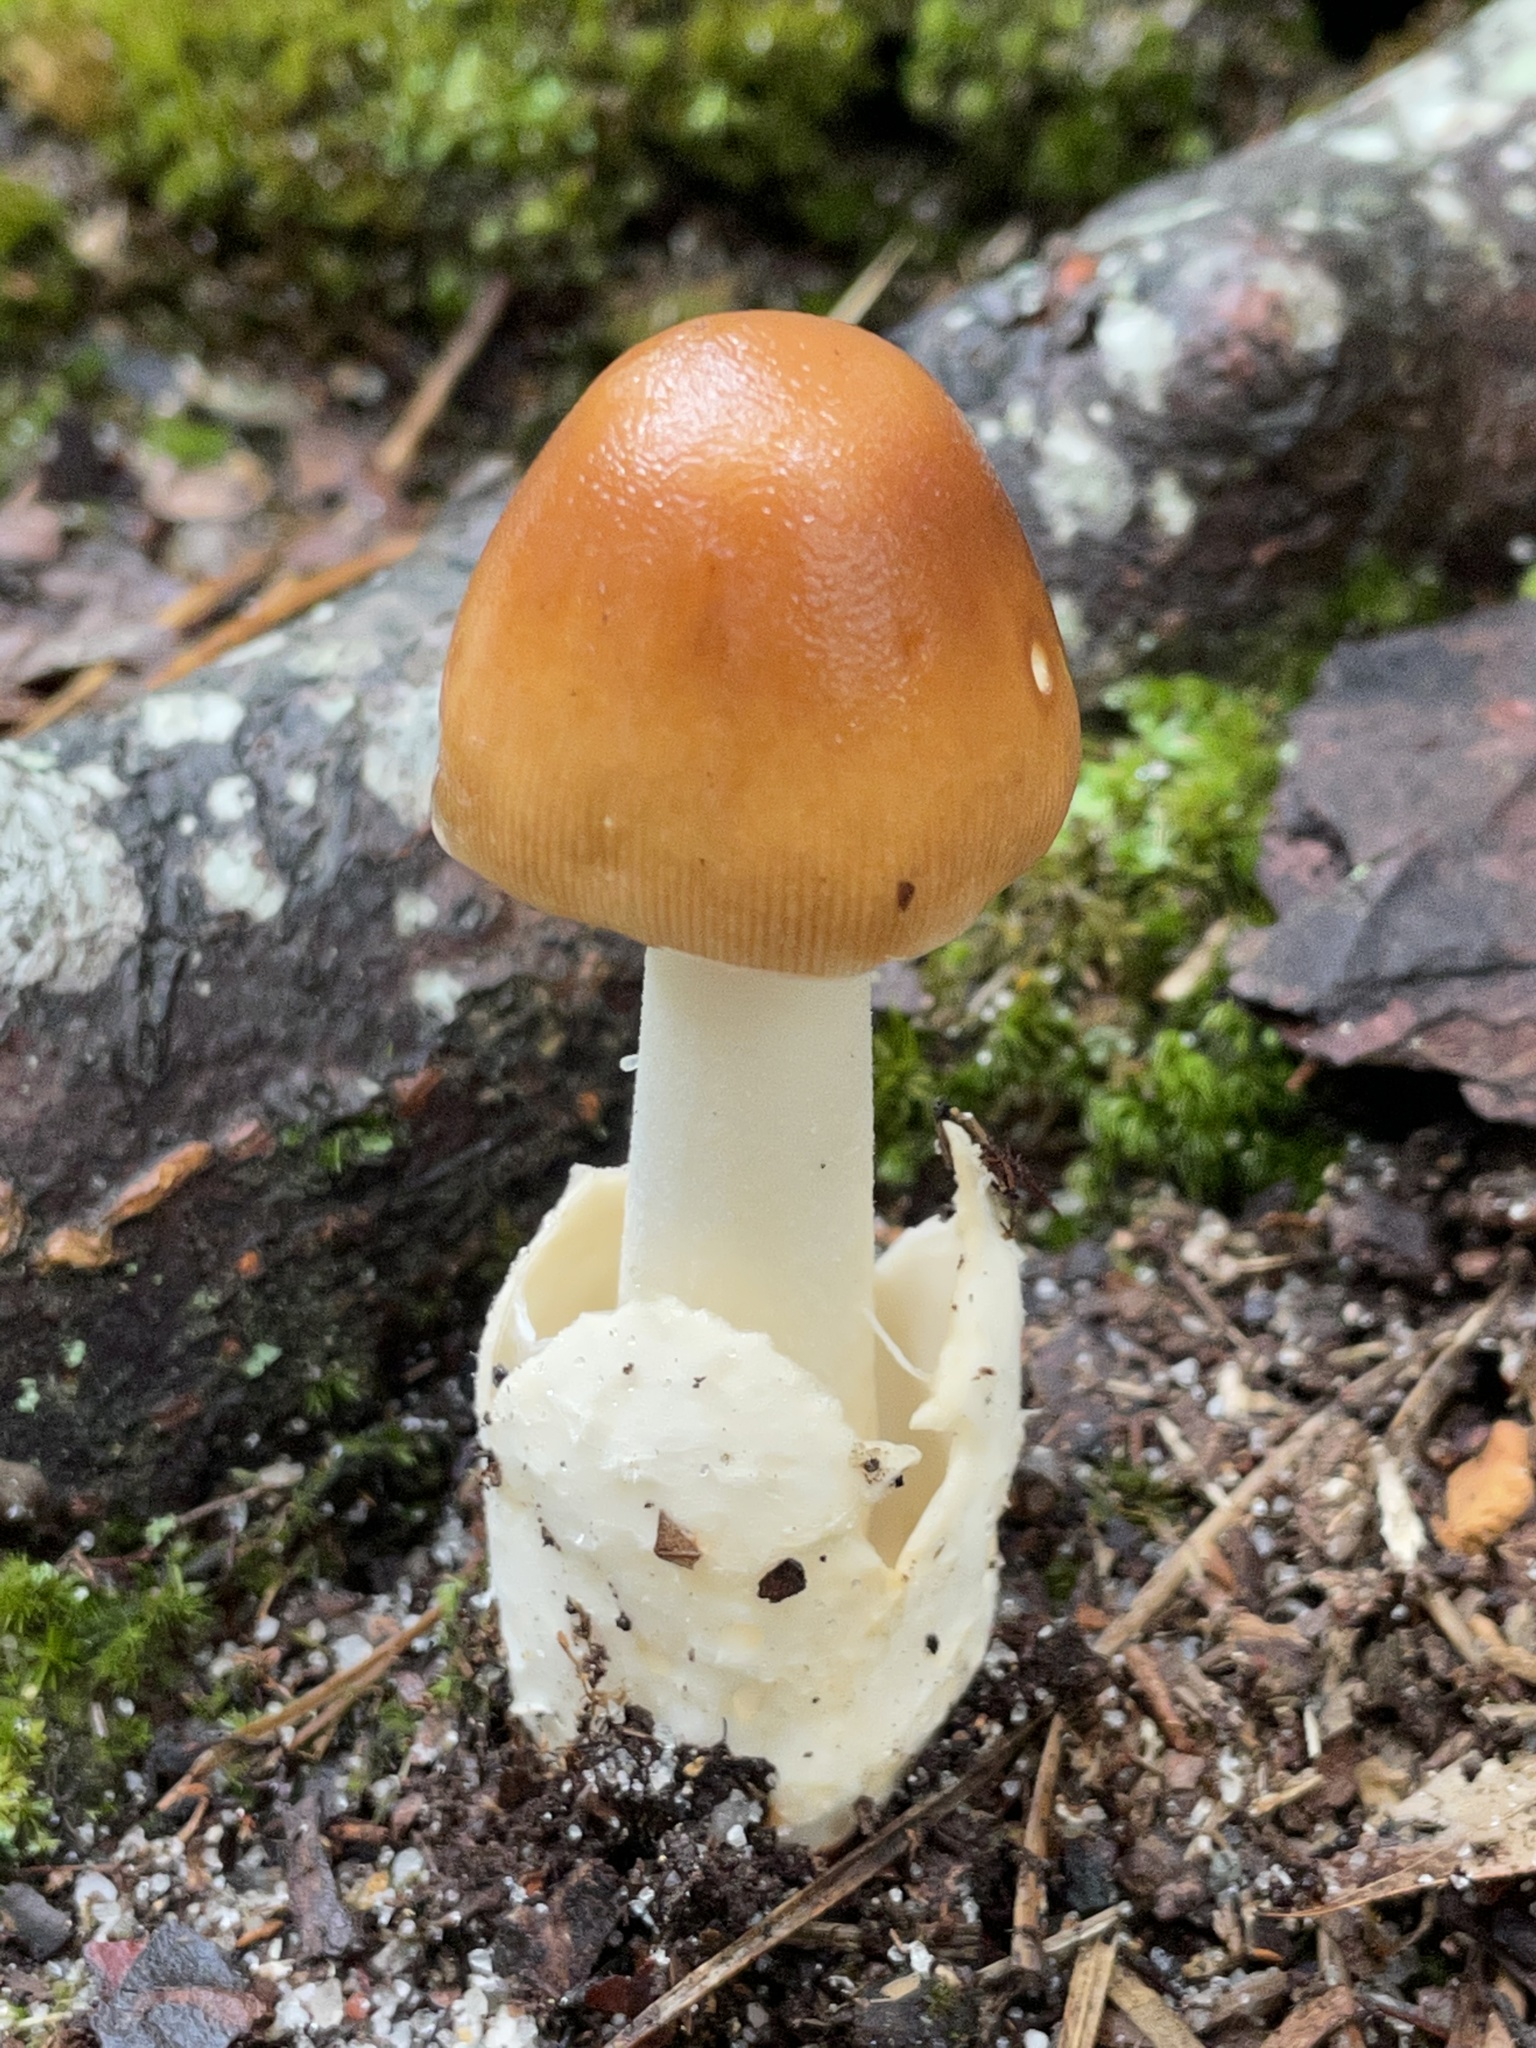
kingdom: Fungi
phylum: Basidiomycota
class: Agaricomycetes
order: Agaricales
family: Amanitaceae
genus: Amanita
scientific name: Amanita fulva
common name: Tawny grisette
